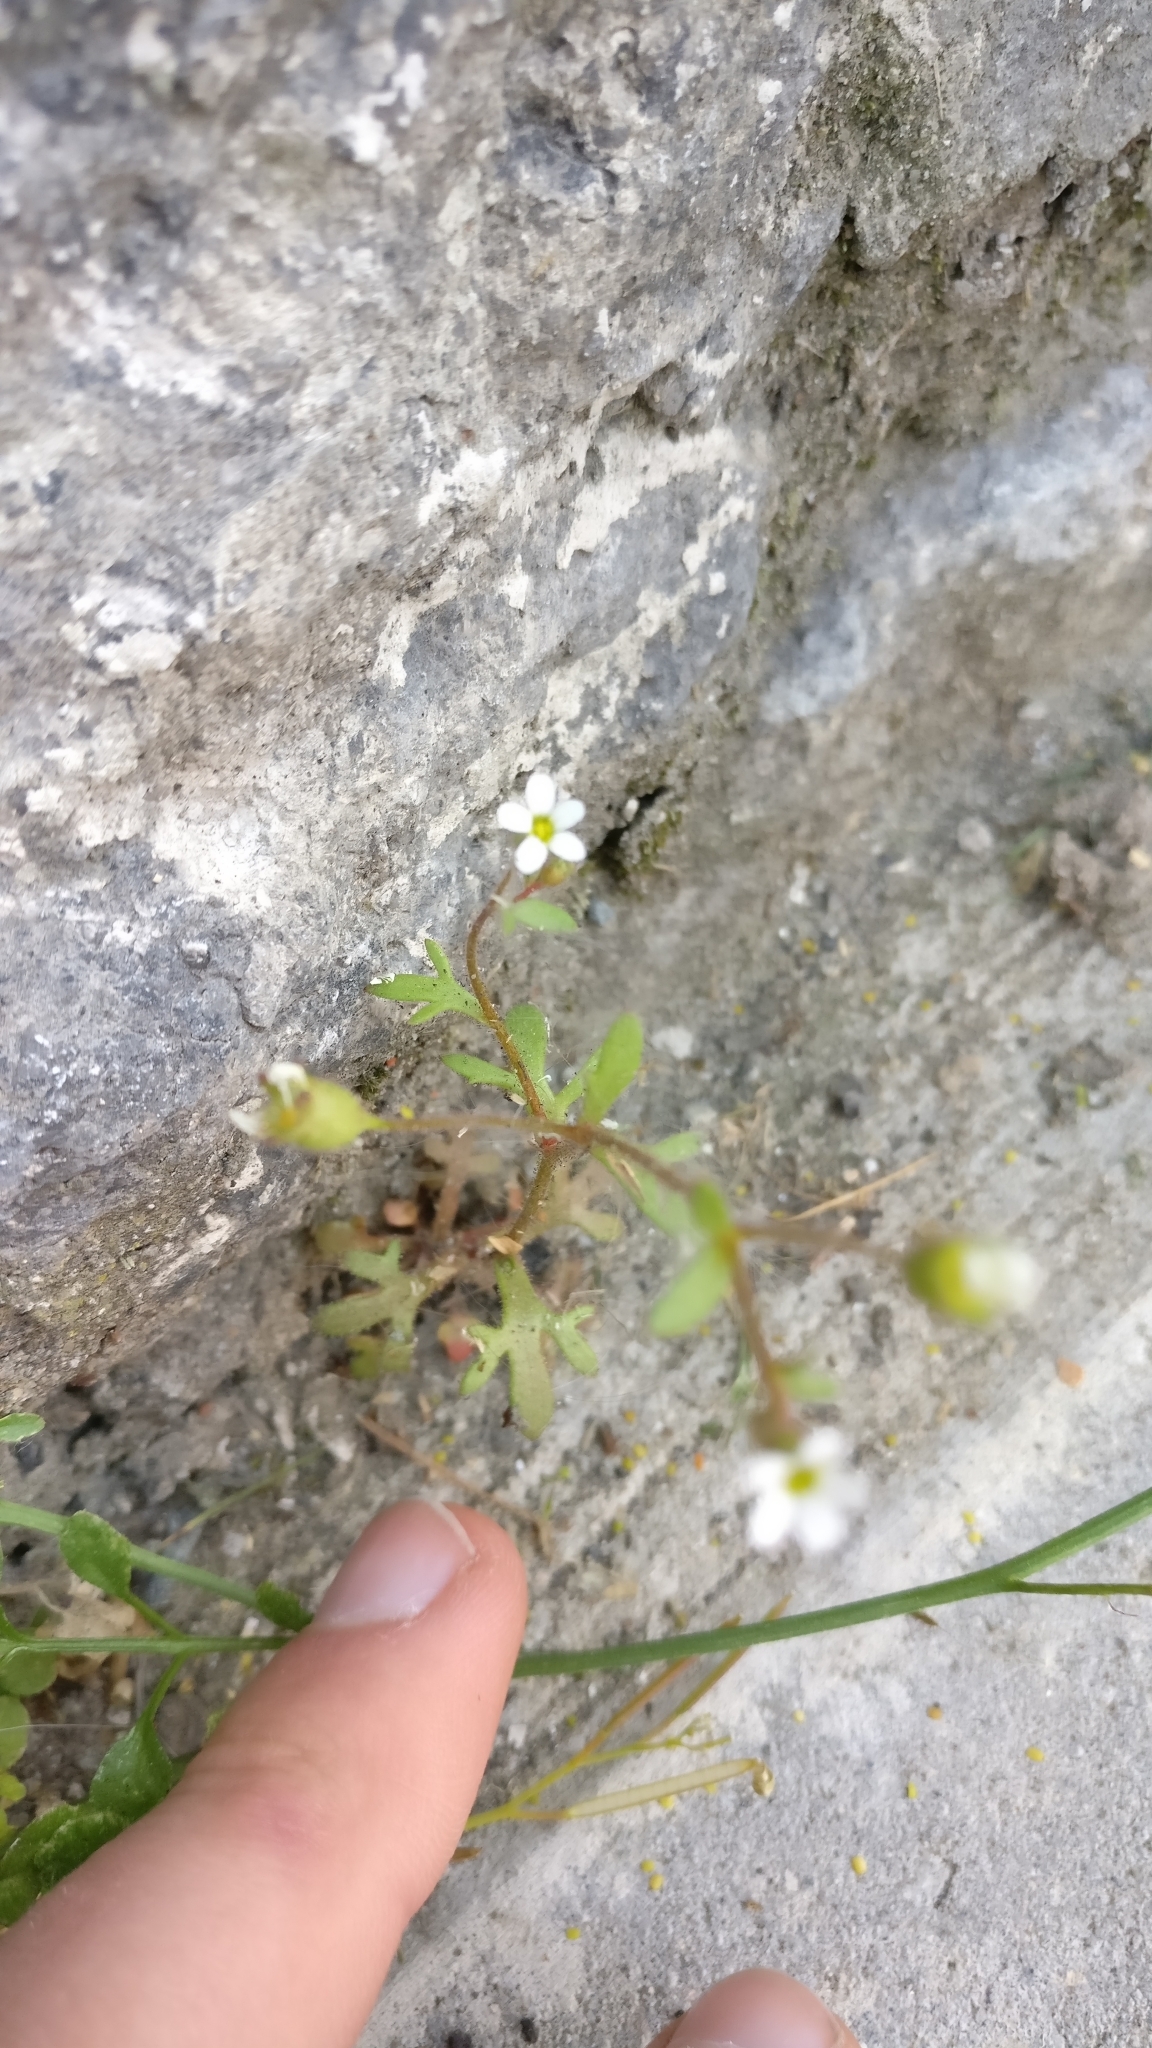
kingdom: Plantae
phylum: Tracheophyta
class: Magnoliopsida
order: Saxifragales
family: Saxifragaceae
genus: Saxifraga
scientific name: Saxifraga tridactylites
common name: Rue-leaved saxifrage
